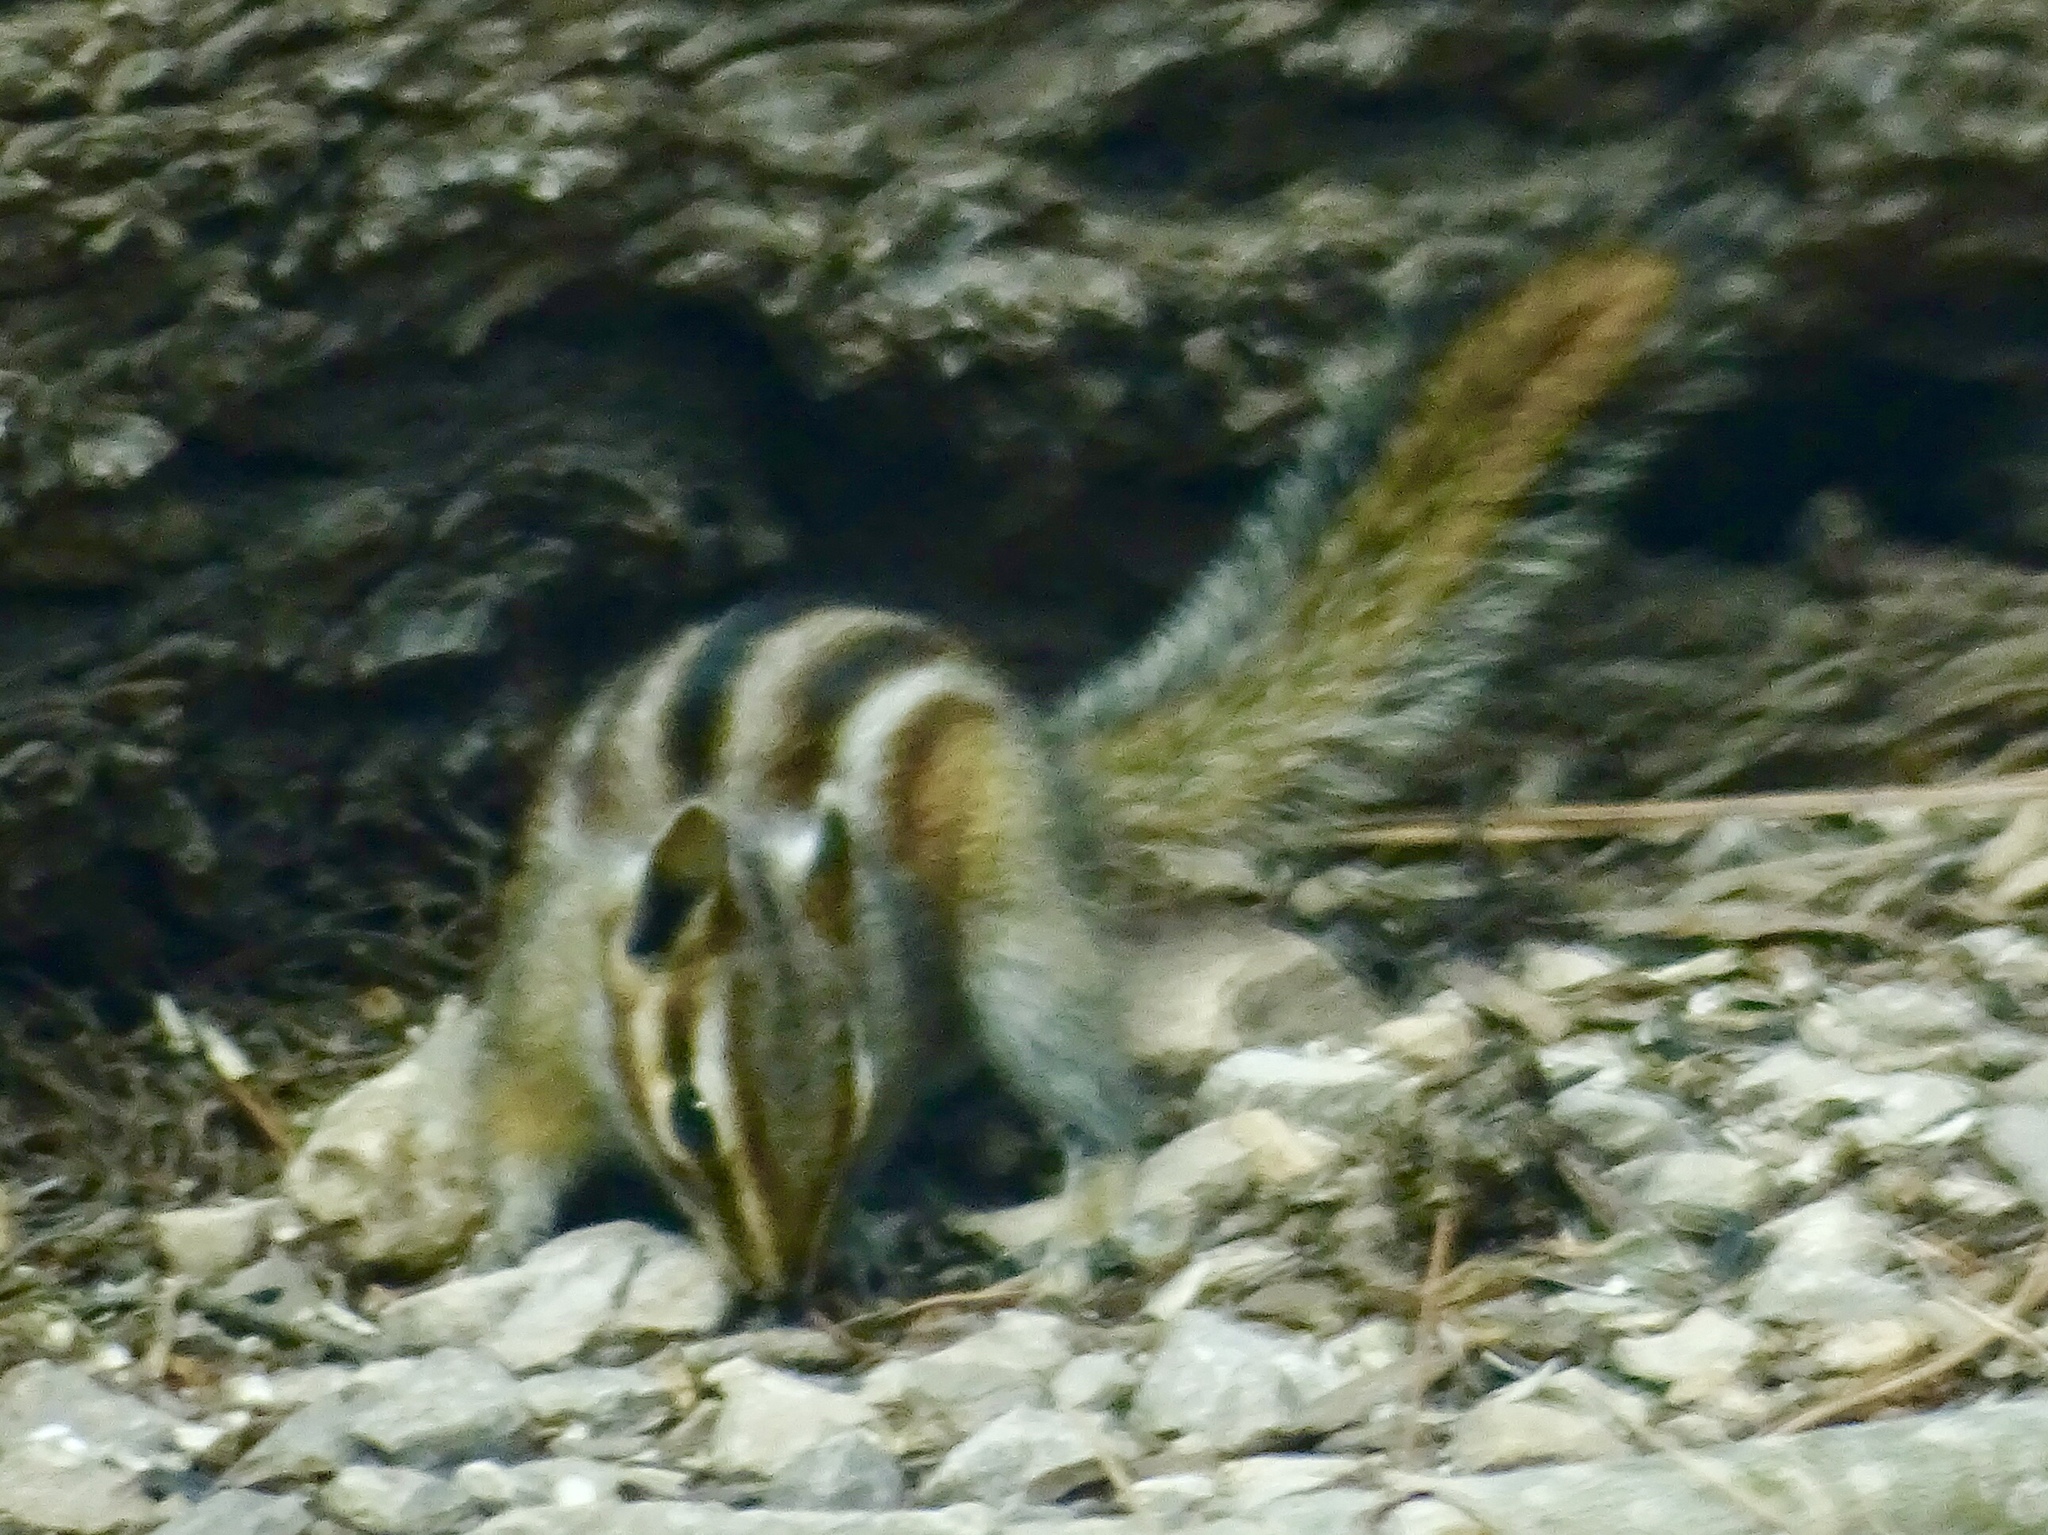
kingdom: Animalia
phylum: Chordata
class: Mammalia
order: Rodentia
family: Sciuridae
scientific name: Sciuridae
